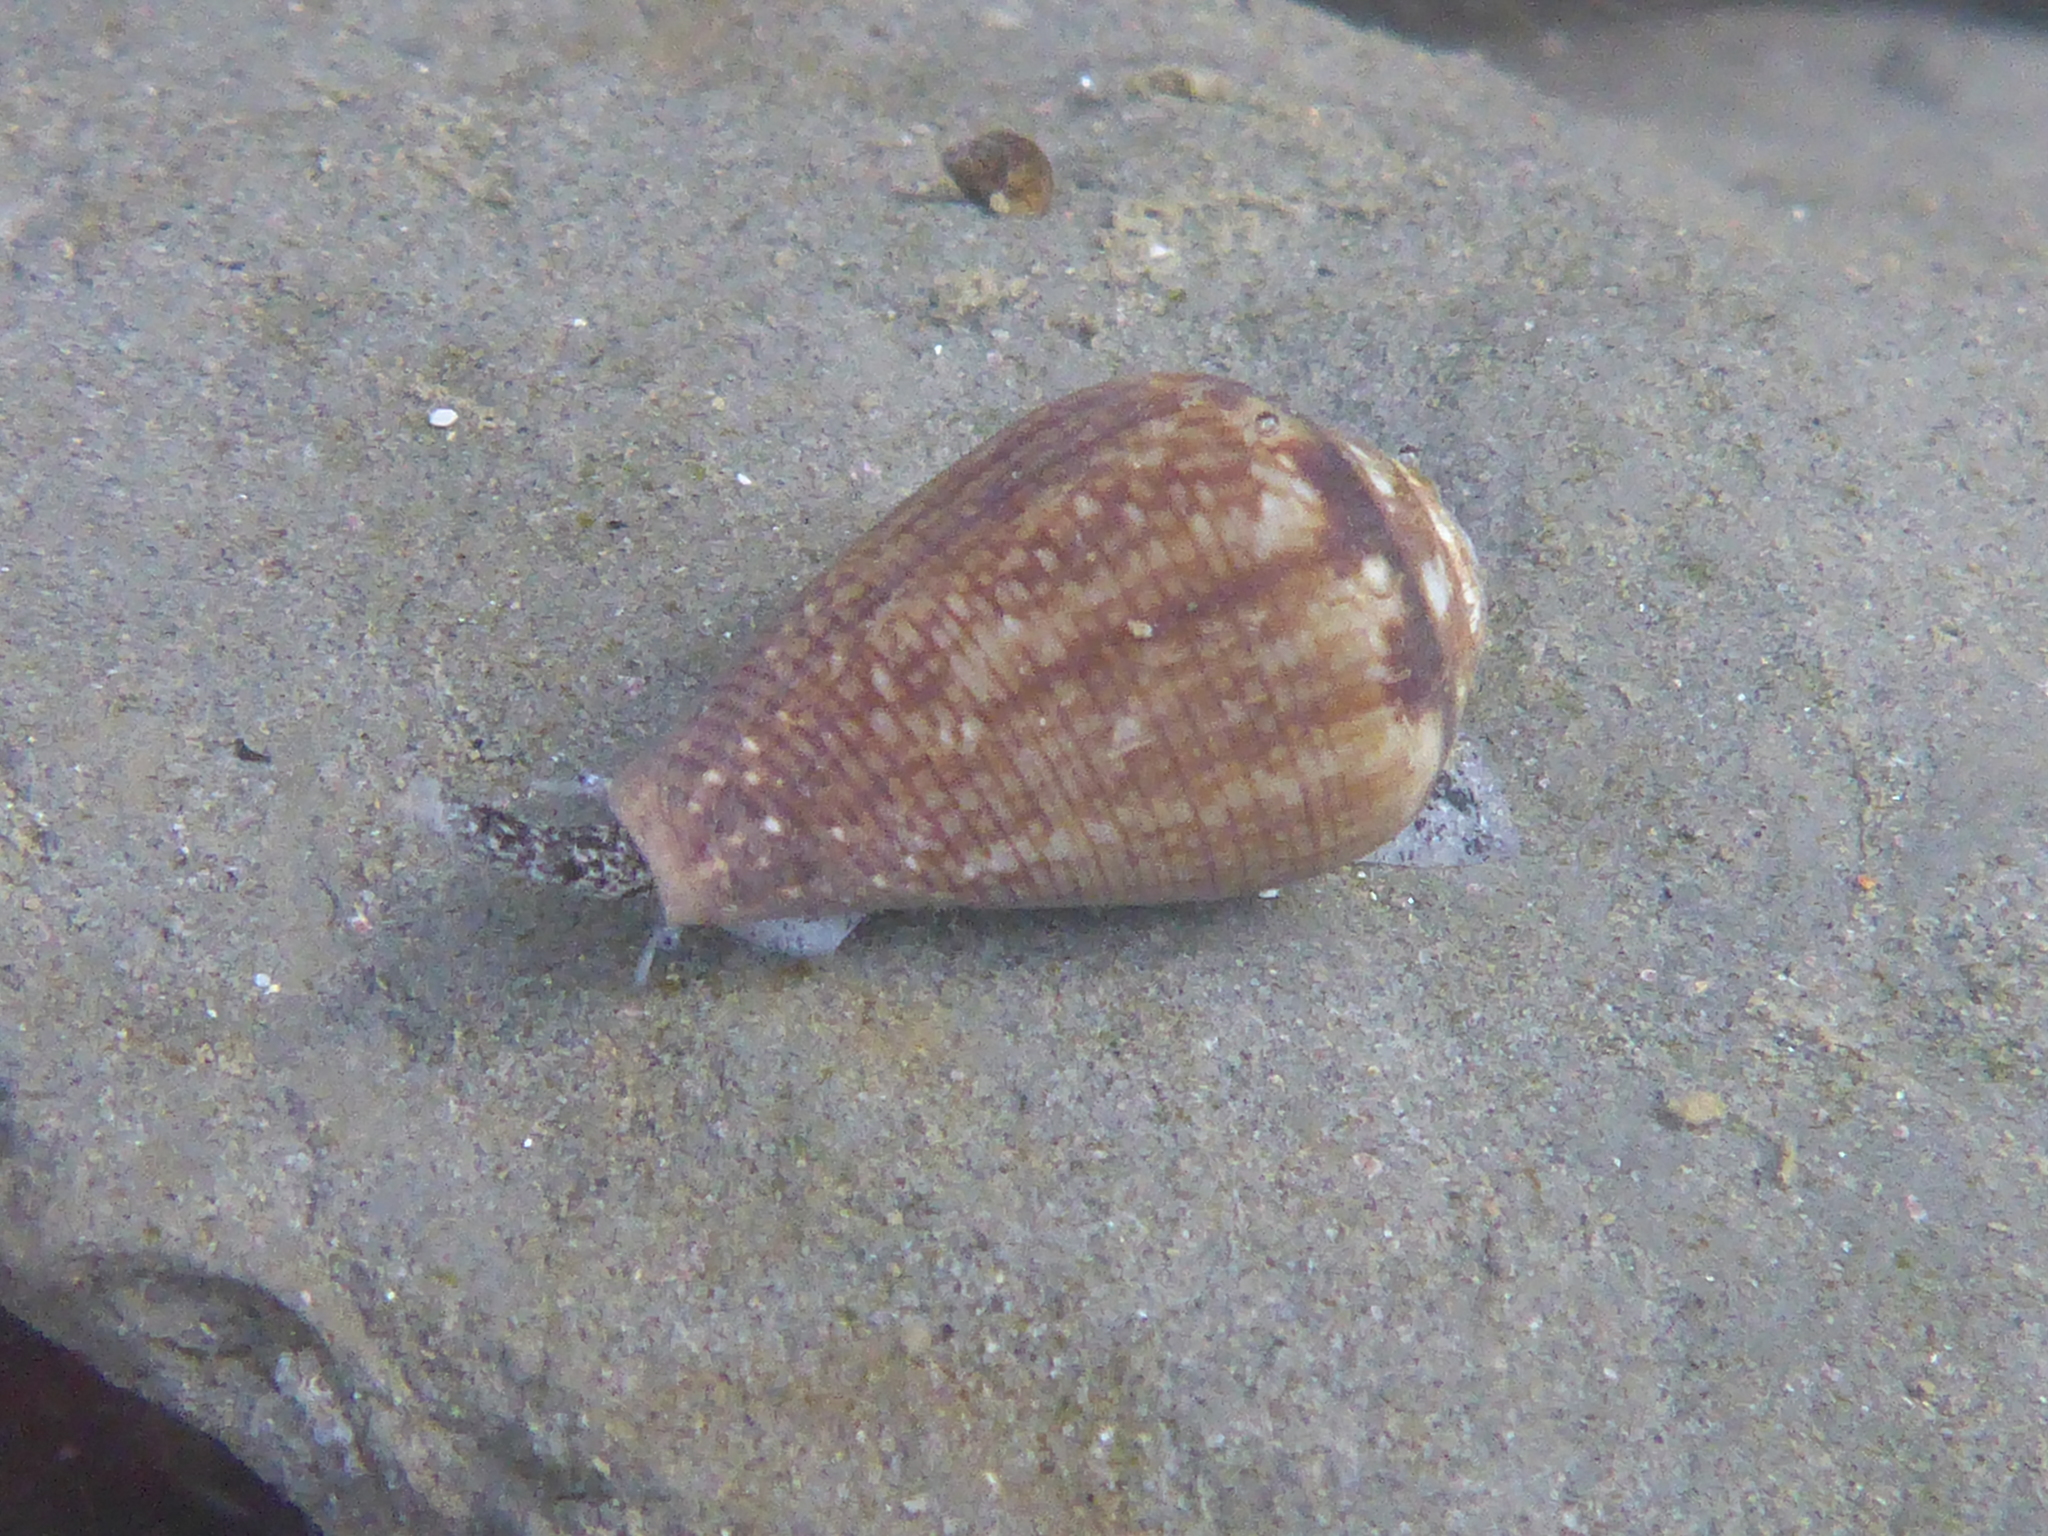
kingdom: Animalia
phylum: Mollusca
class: Gastropoda
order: Neogastropoda
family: Conidae
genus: Californiconus
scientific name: Californiconus californicus
